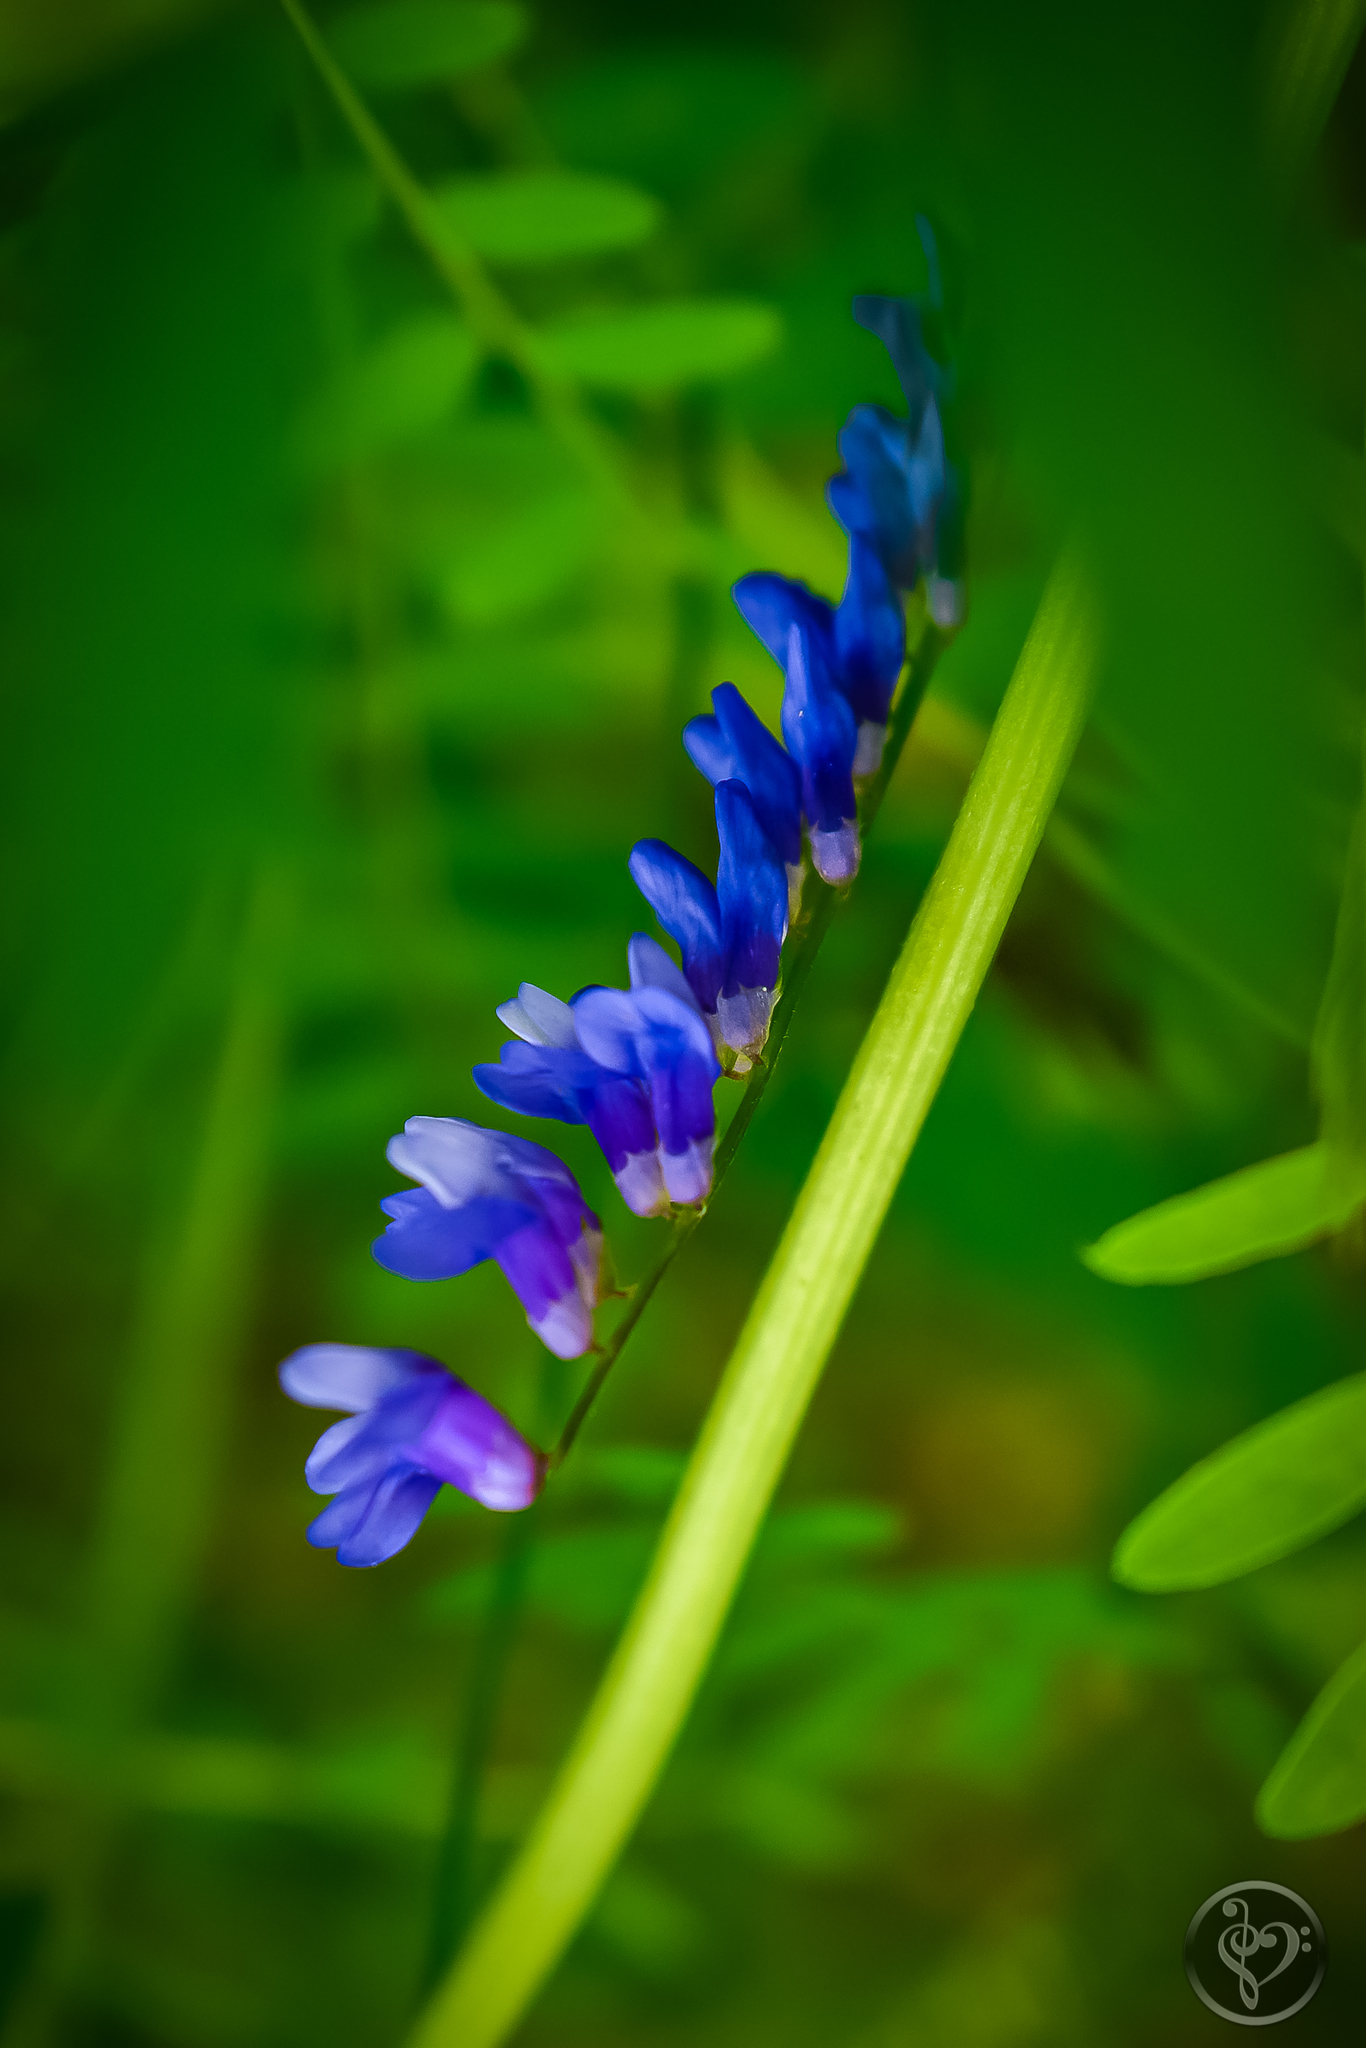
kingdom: Plantae
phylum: Tracheophyta
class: Magnoliopsida
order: Fabales
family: Fabaceae
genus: Vicia
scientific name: Vicia cracca
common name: Bird vetch
